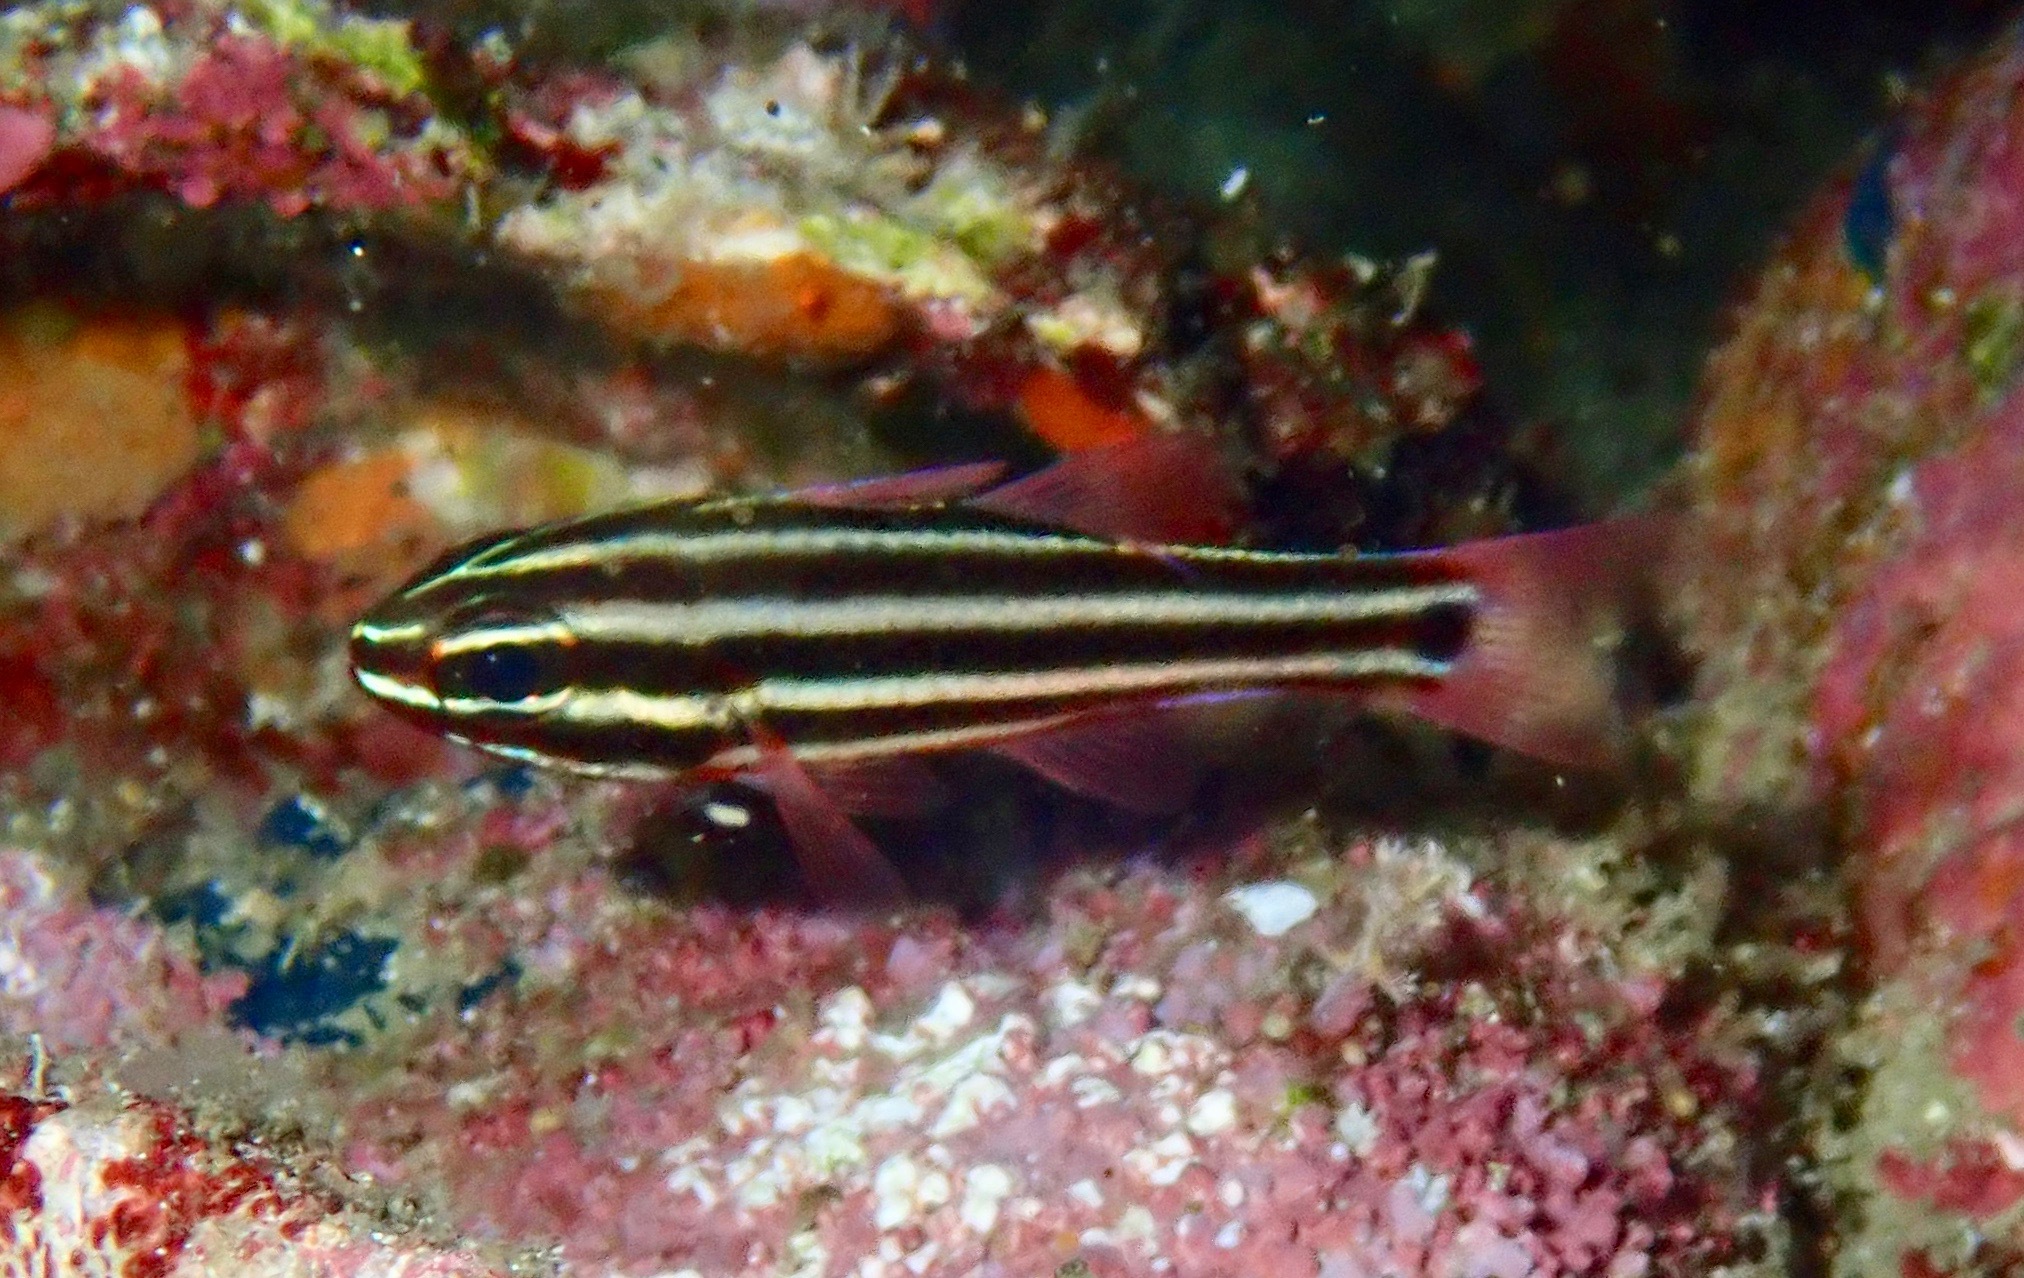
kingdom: Animalia
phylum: Chordata
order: Perciformes
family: Apogonidae
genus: Ostorhinchus
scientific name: Ostorhinchus angustatus
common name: Narrow-striped cardinalfish
